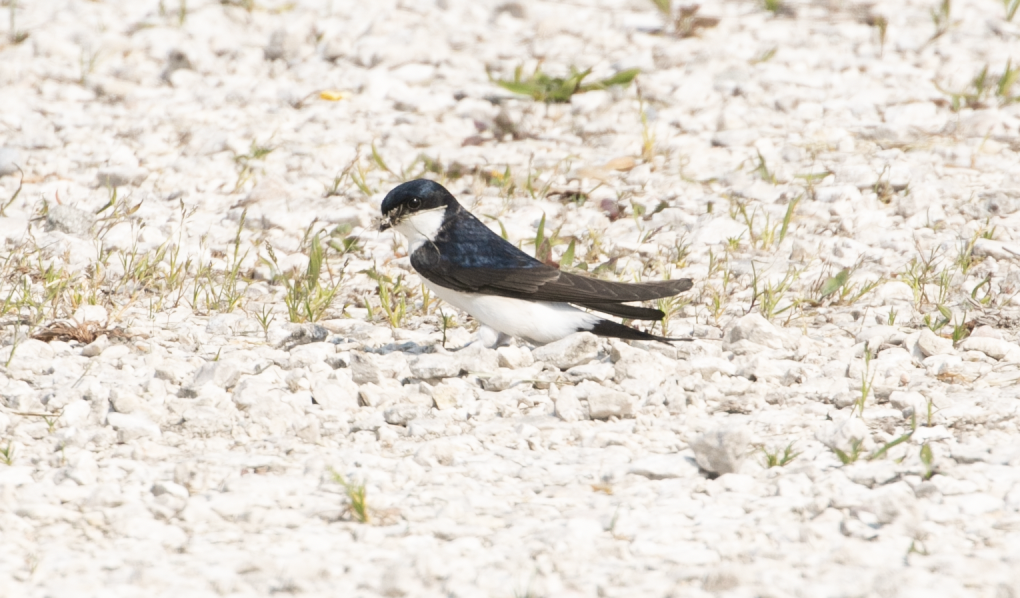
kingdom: Animalia
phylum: Chordata
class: Aves
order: Passeriformes
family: Hirundinidae
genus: Delichon
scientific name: Delichon urbicum
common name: Common house martin
